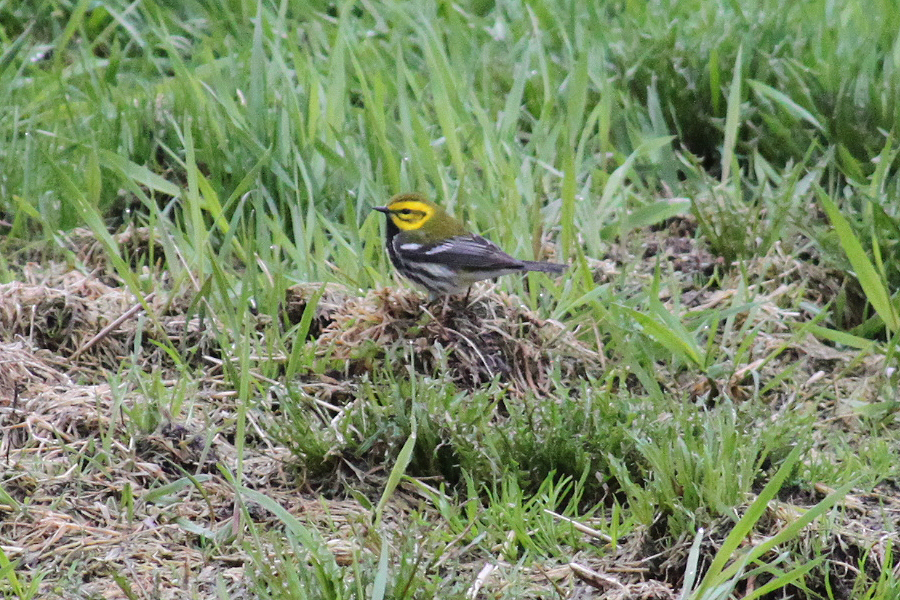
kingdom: Animalia
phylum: Chordata
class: Aves
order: Passeriformes
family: Parulidae
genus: Setophaga
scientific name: Setophaga virens
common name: Black-throated green warbler
